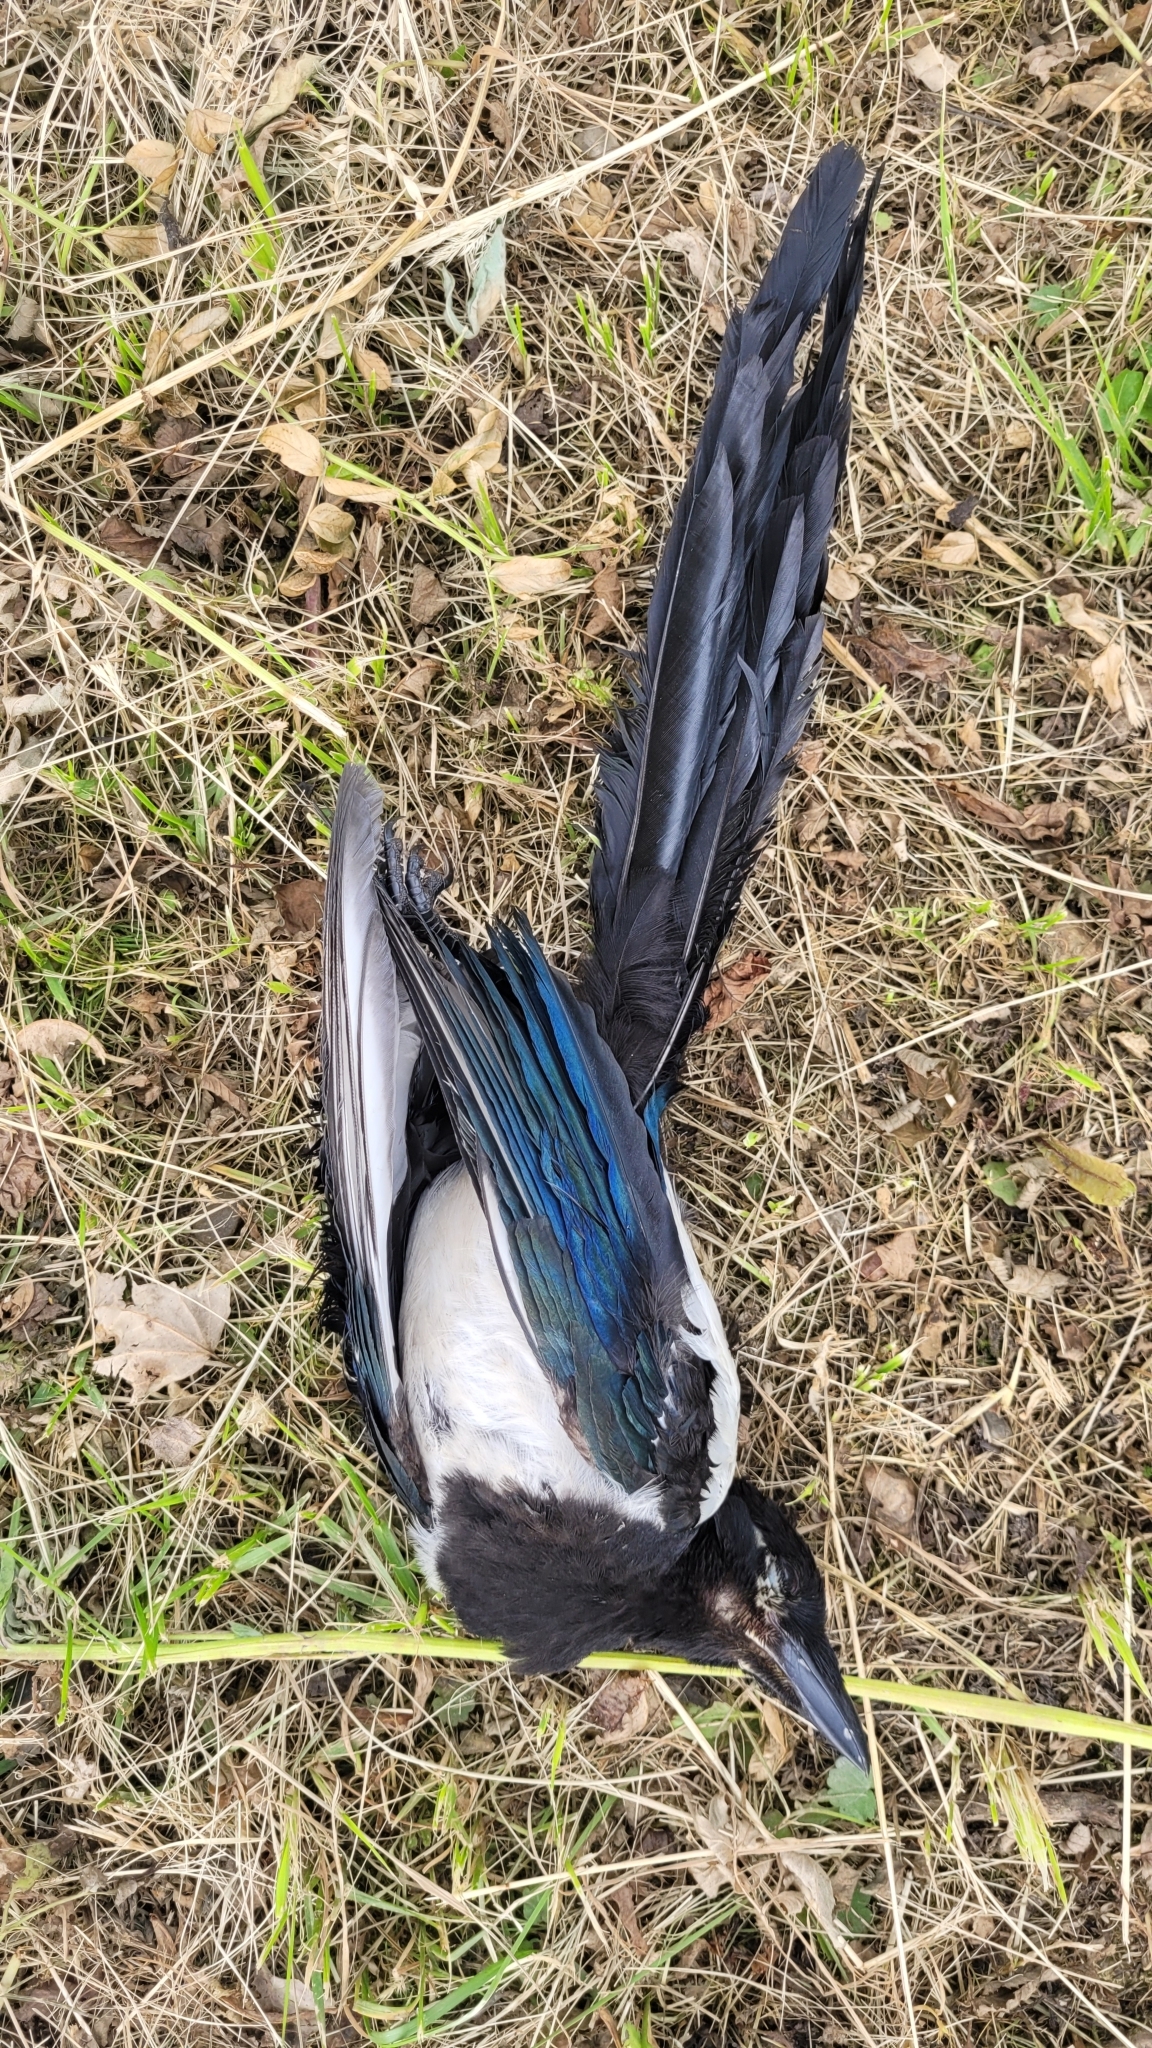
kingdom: Animalia
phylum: Chordata
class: Aves
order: Passeriformes
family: Corvidae
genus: Pica
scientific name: Pica pica
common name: Eurasian magpie
